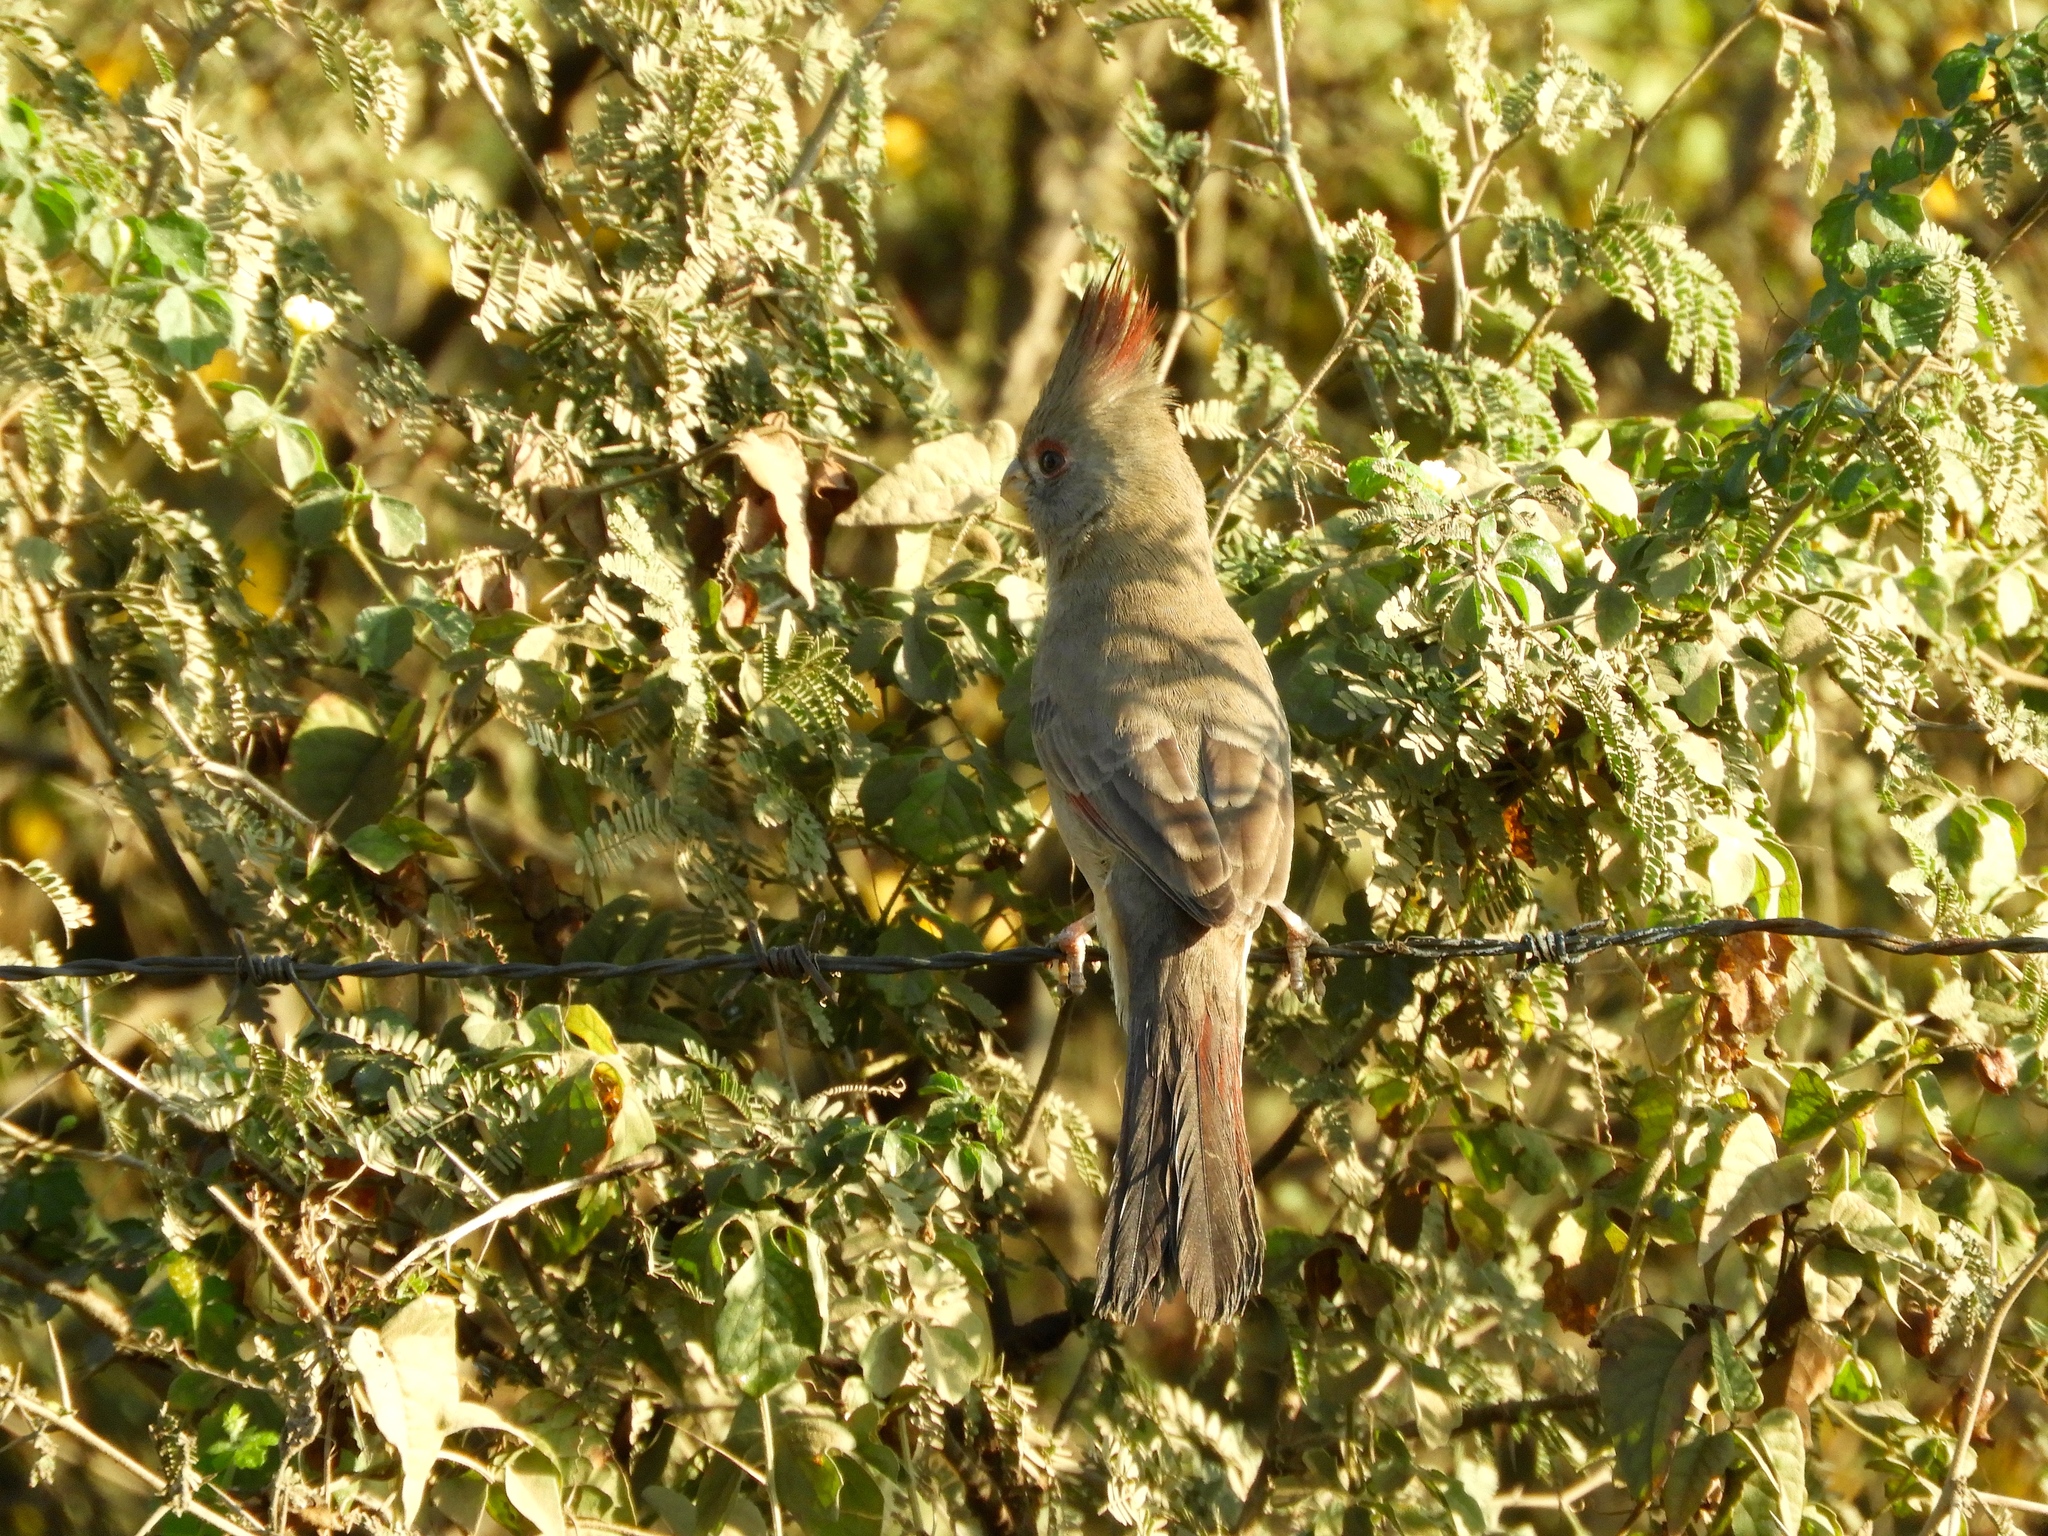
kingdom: Animalia
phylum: Chordata
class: Aves
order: Passeriformes
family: Cardinalidae
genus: Cardinalis
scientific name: Cardinalis sinuatus
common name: Pyrrhuloxia
